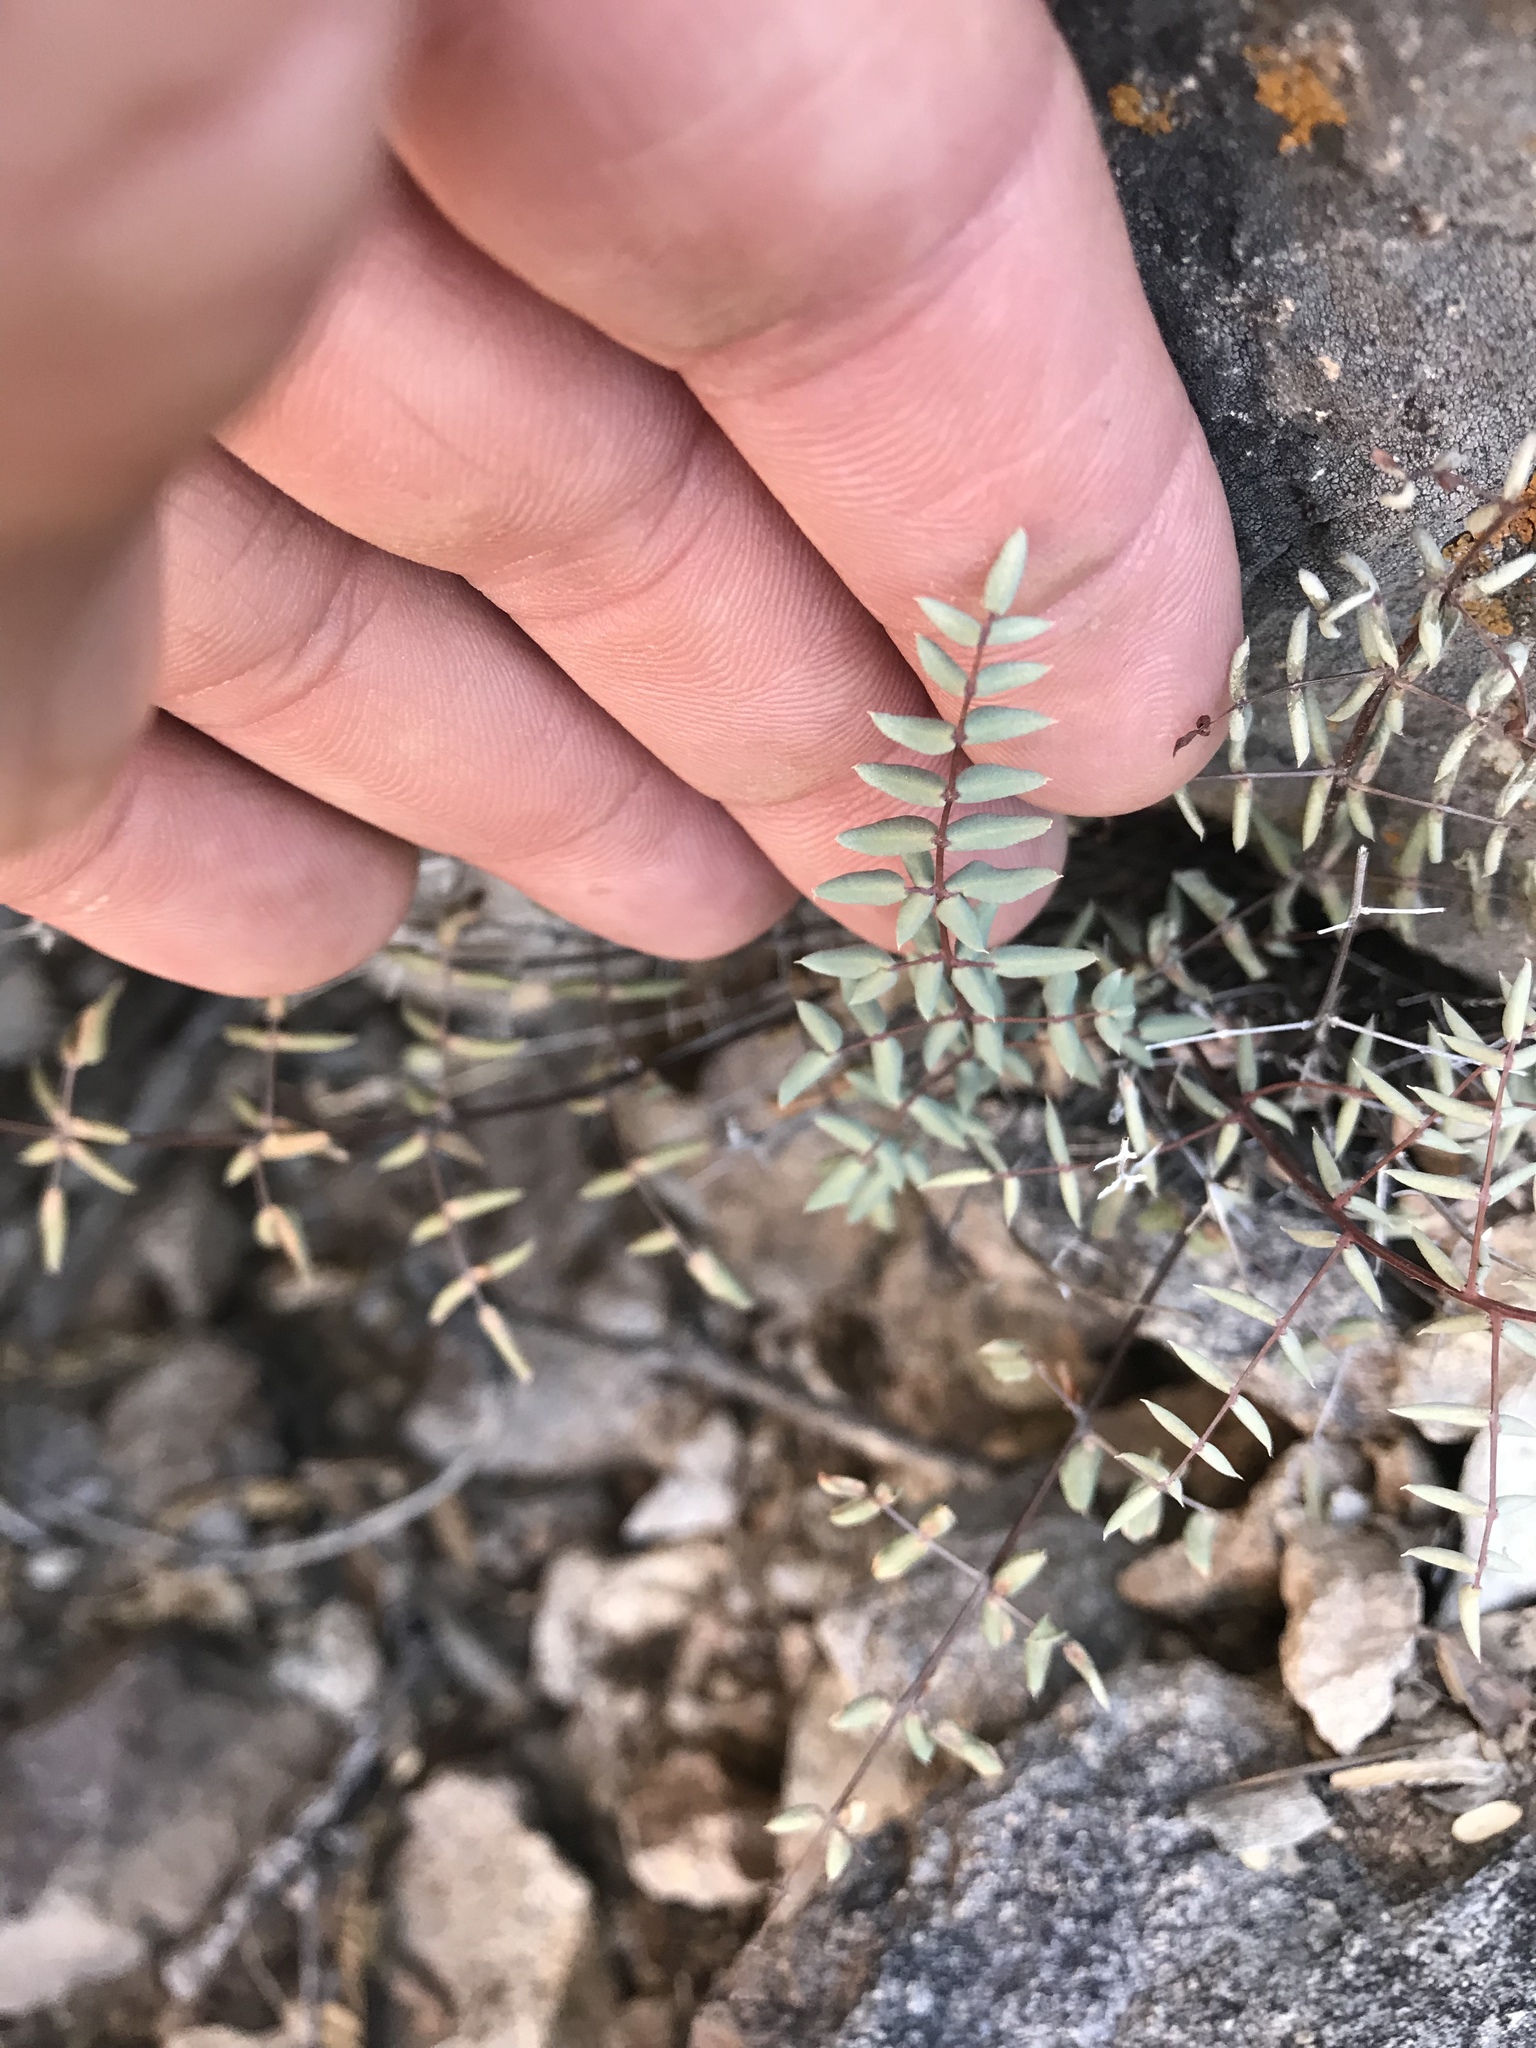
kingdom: Plantae
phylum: Tracheophyta
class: Polypodiopsida
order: Polypodiales
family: Pteridaceae
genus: Pellaea
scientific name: Pellaea truncata
